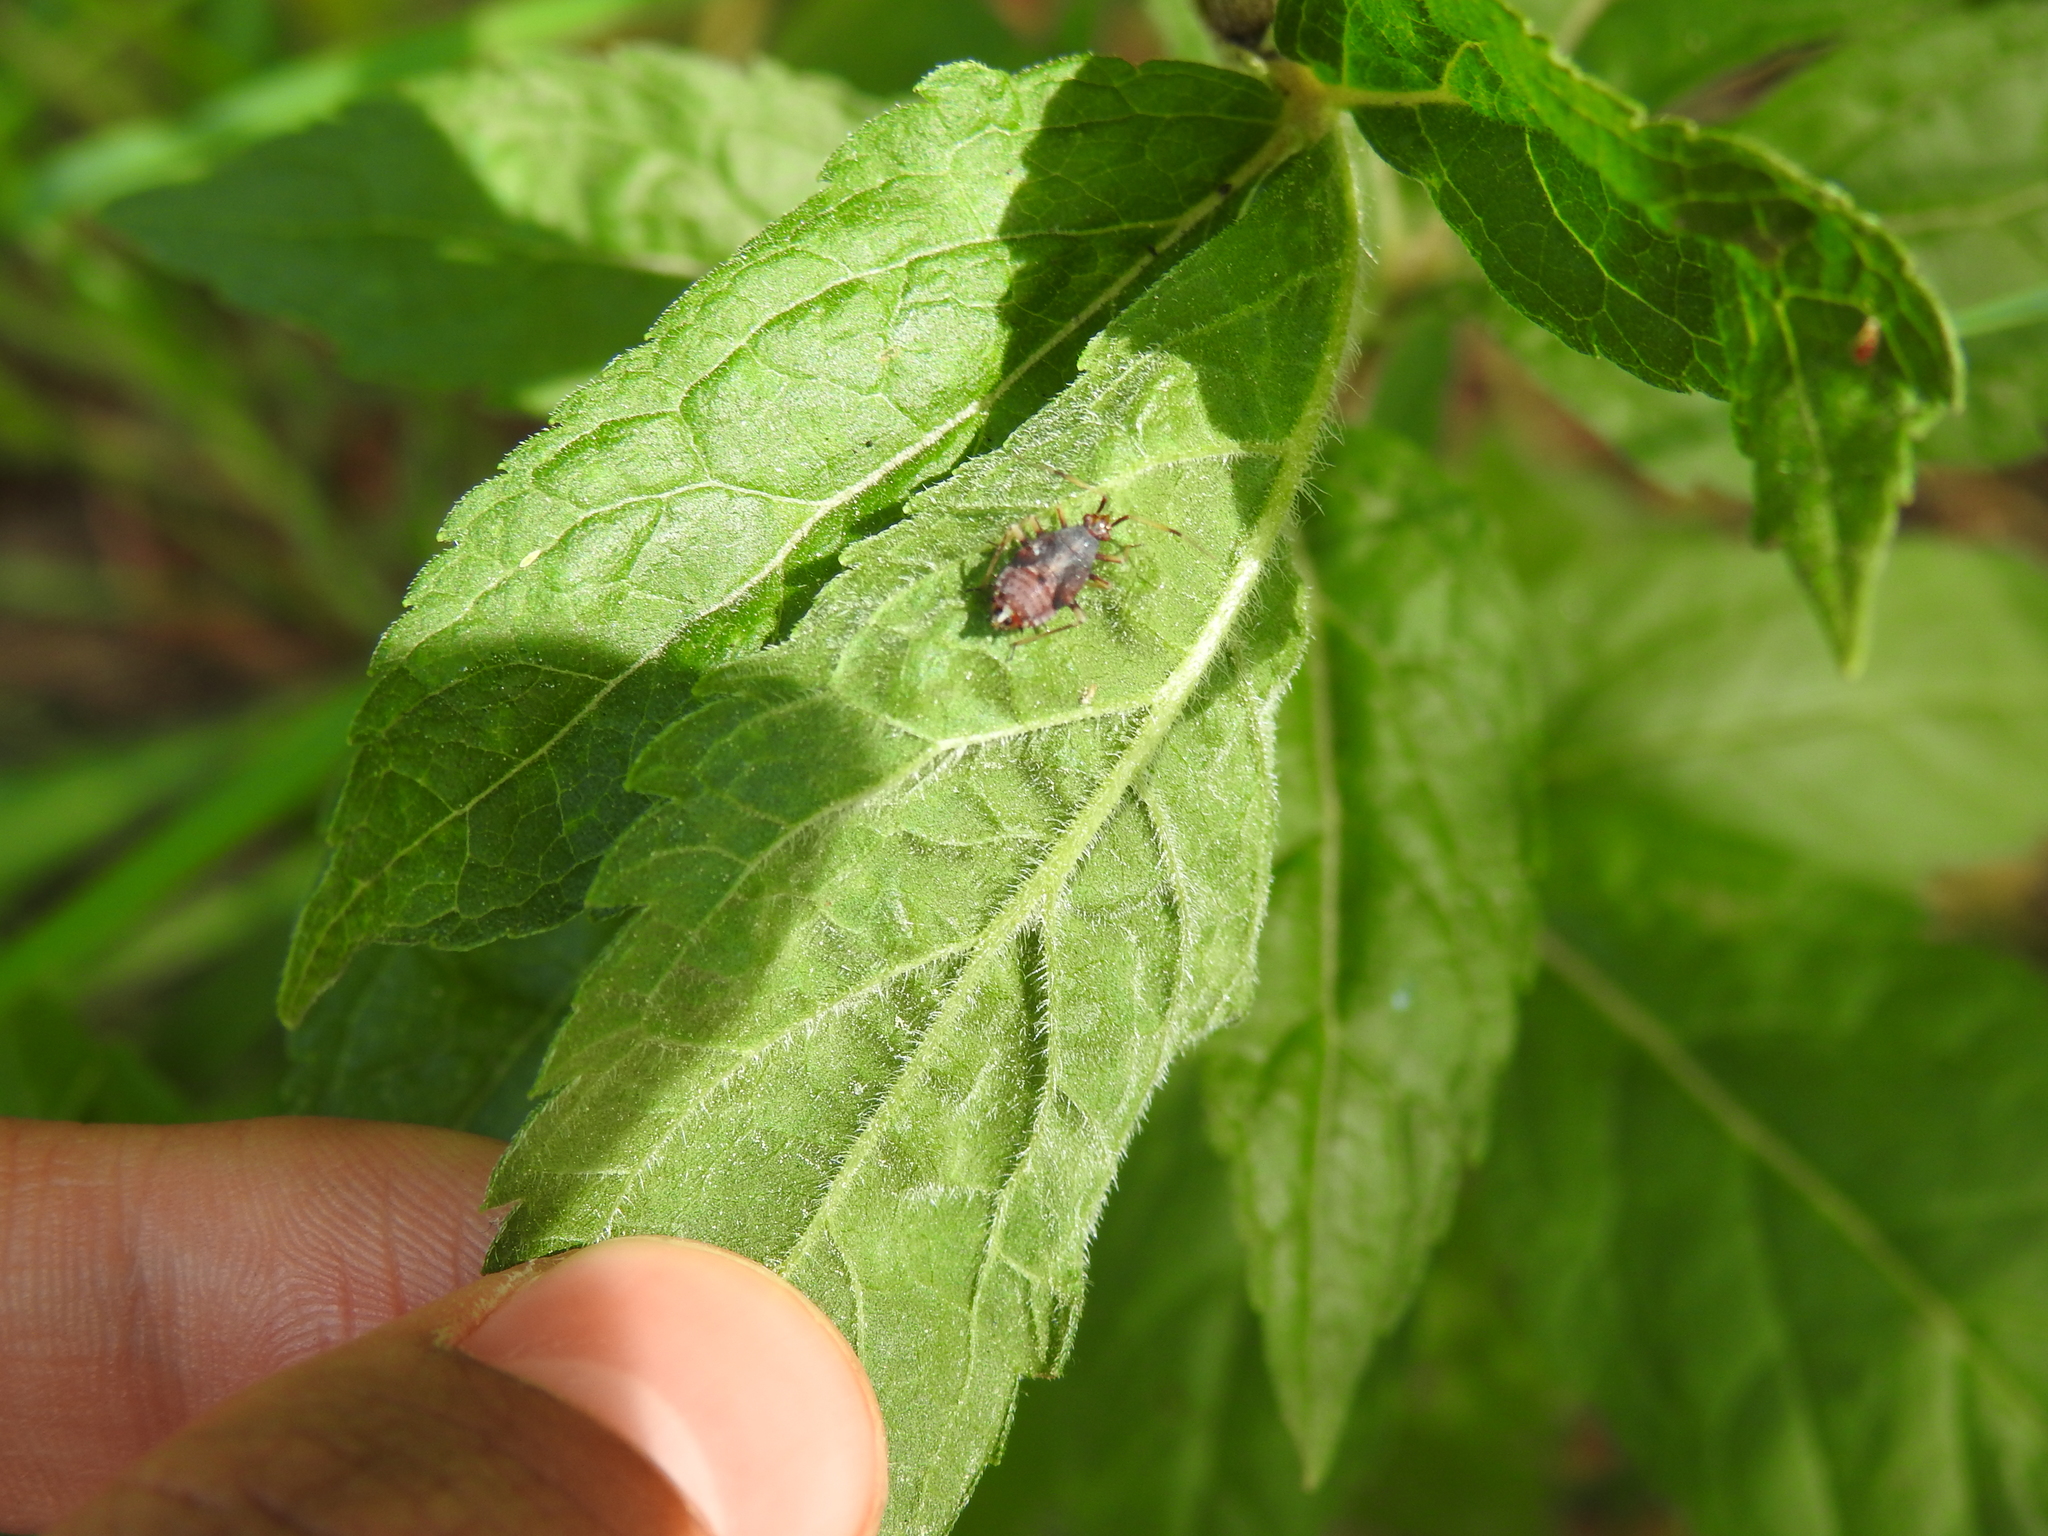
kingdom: Animalia
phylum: Arthropoda
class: Insecta
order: Hemiptera
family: Miridae
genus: Deraeocoris
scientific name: Deraeocoris ruber
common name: Plant bug
